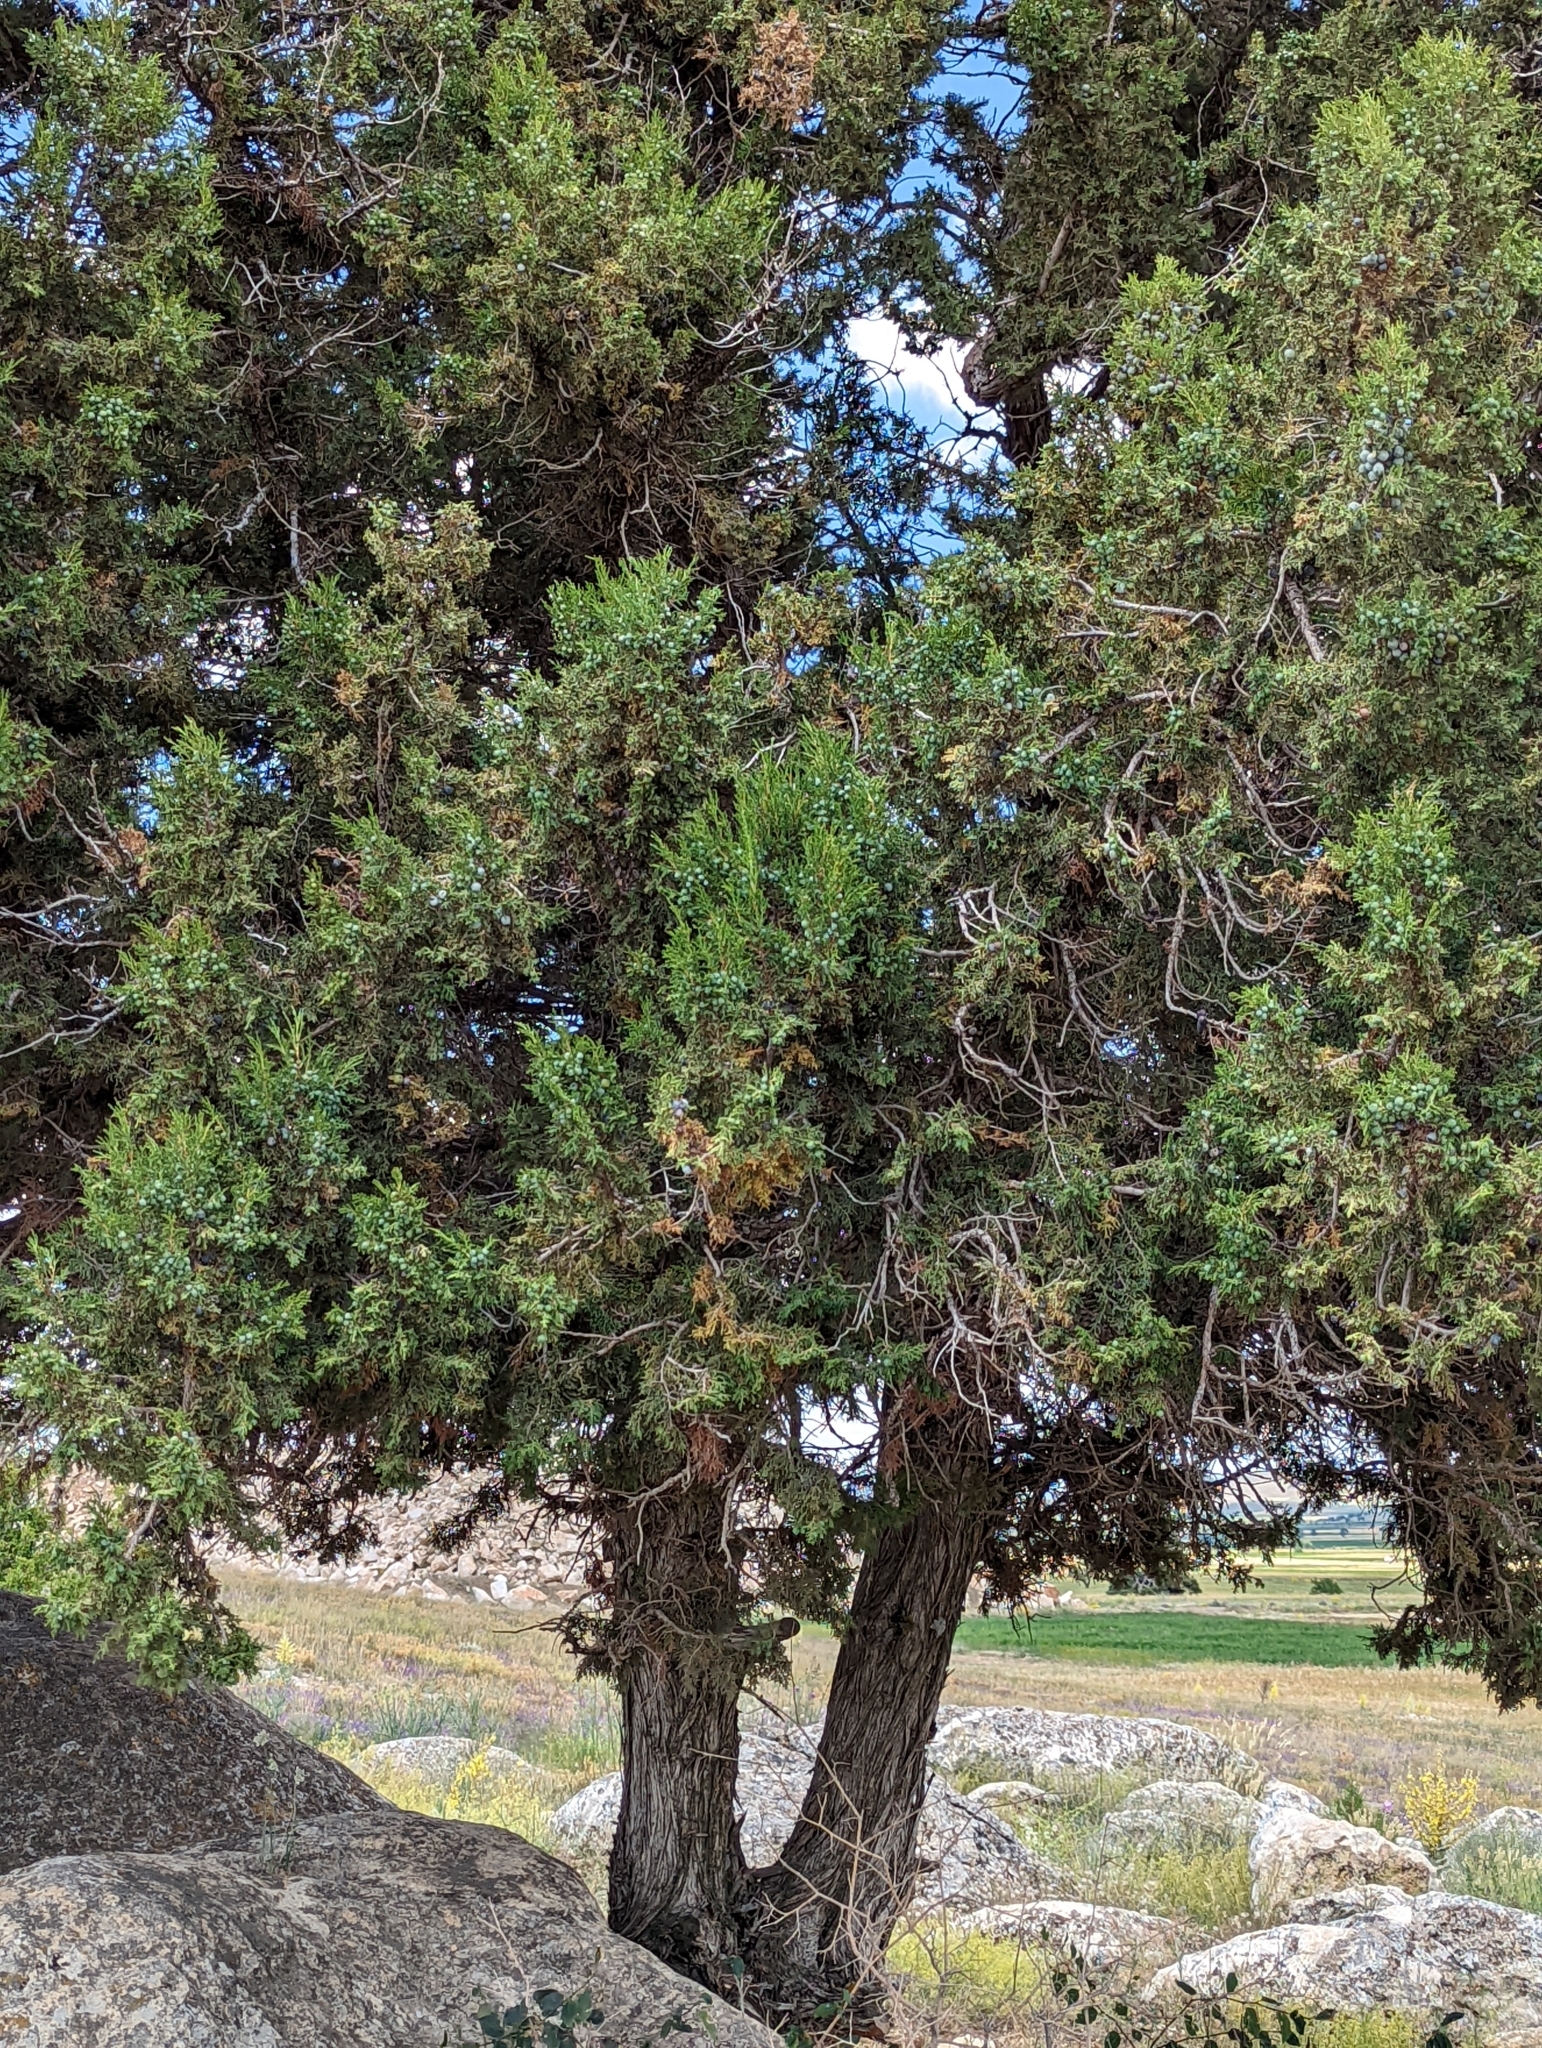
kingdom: Plantae
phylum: Tracheophyta
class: Pinopsida
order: Pinales
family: Cupressaceae
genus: Juniperus
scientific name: Juniperus foetidissima
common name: Stinking juniper
